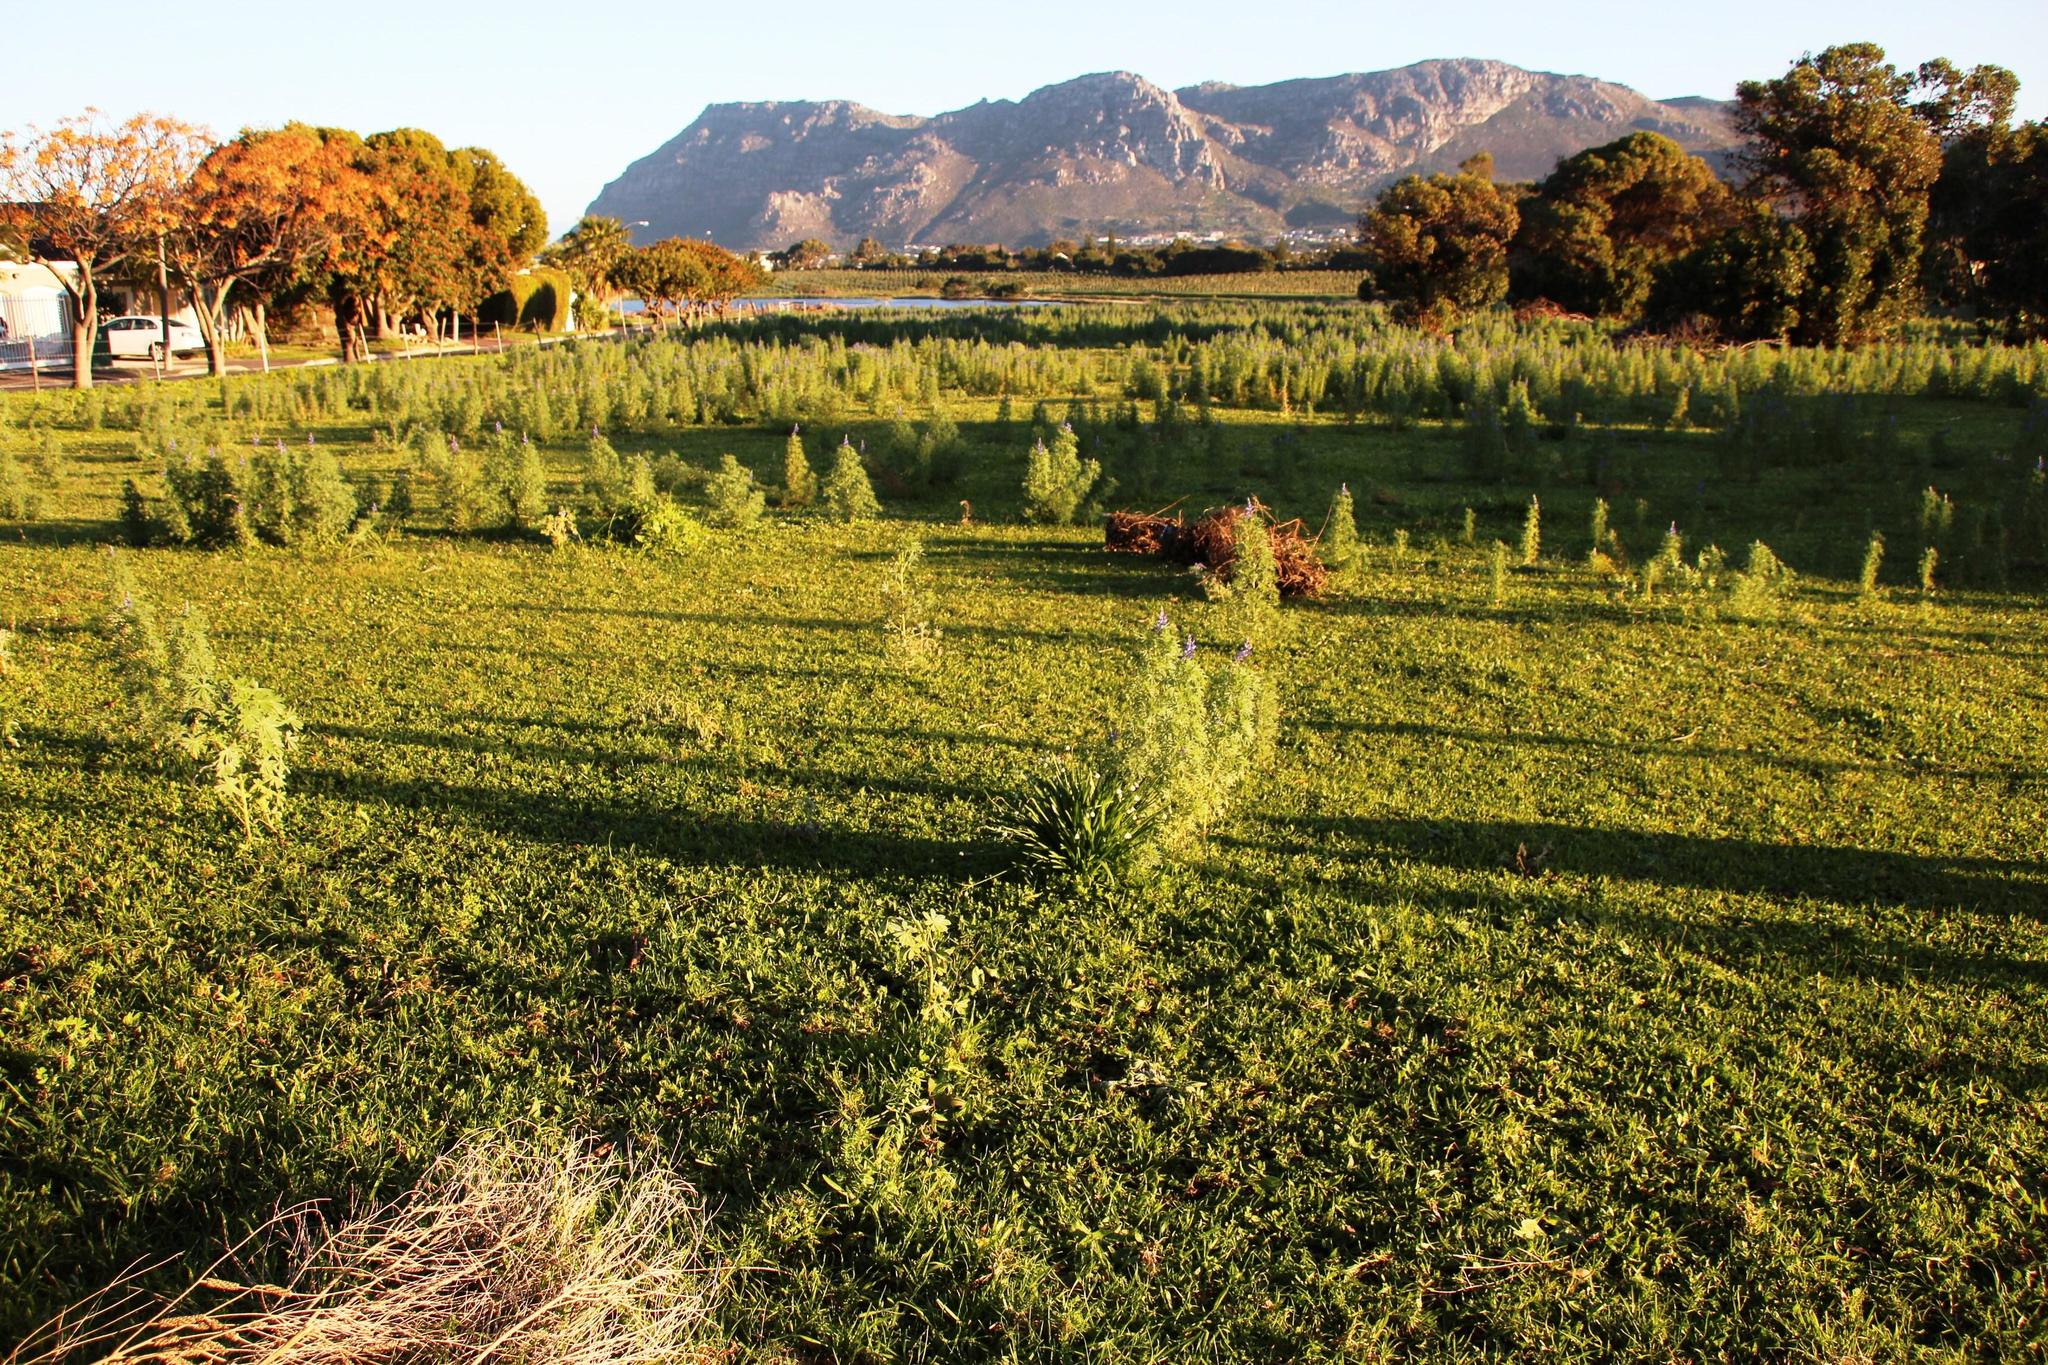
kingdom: Plantae
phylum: Tracheophyta
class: Liliopsida
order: Asparagales
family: Amaryllidaceae
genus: Leucojum
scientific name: Leucojum aestivum
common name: Summer snowflake
